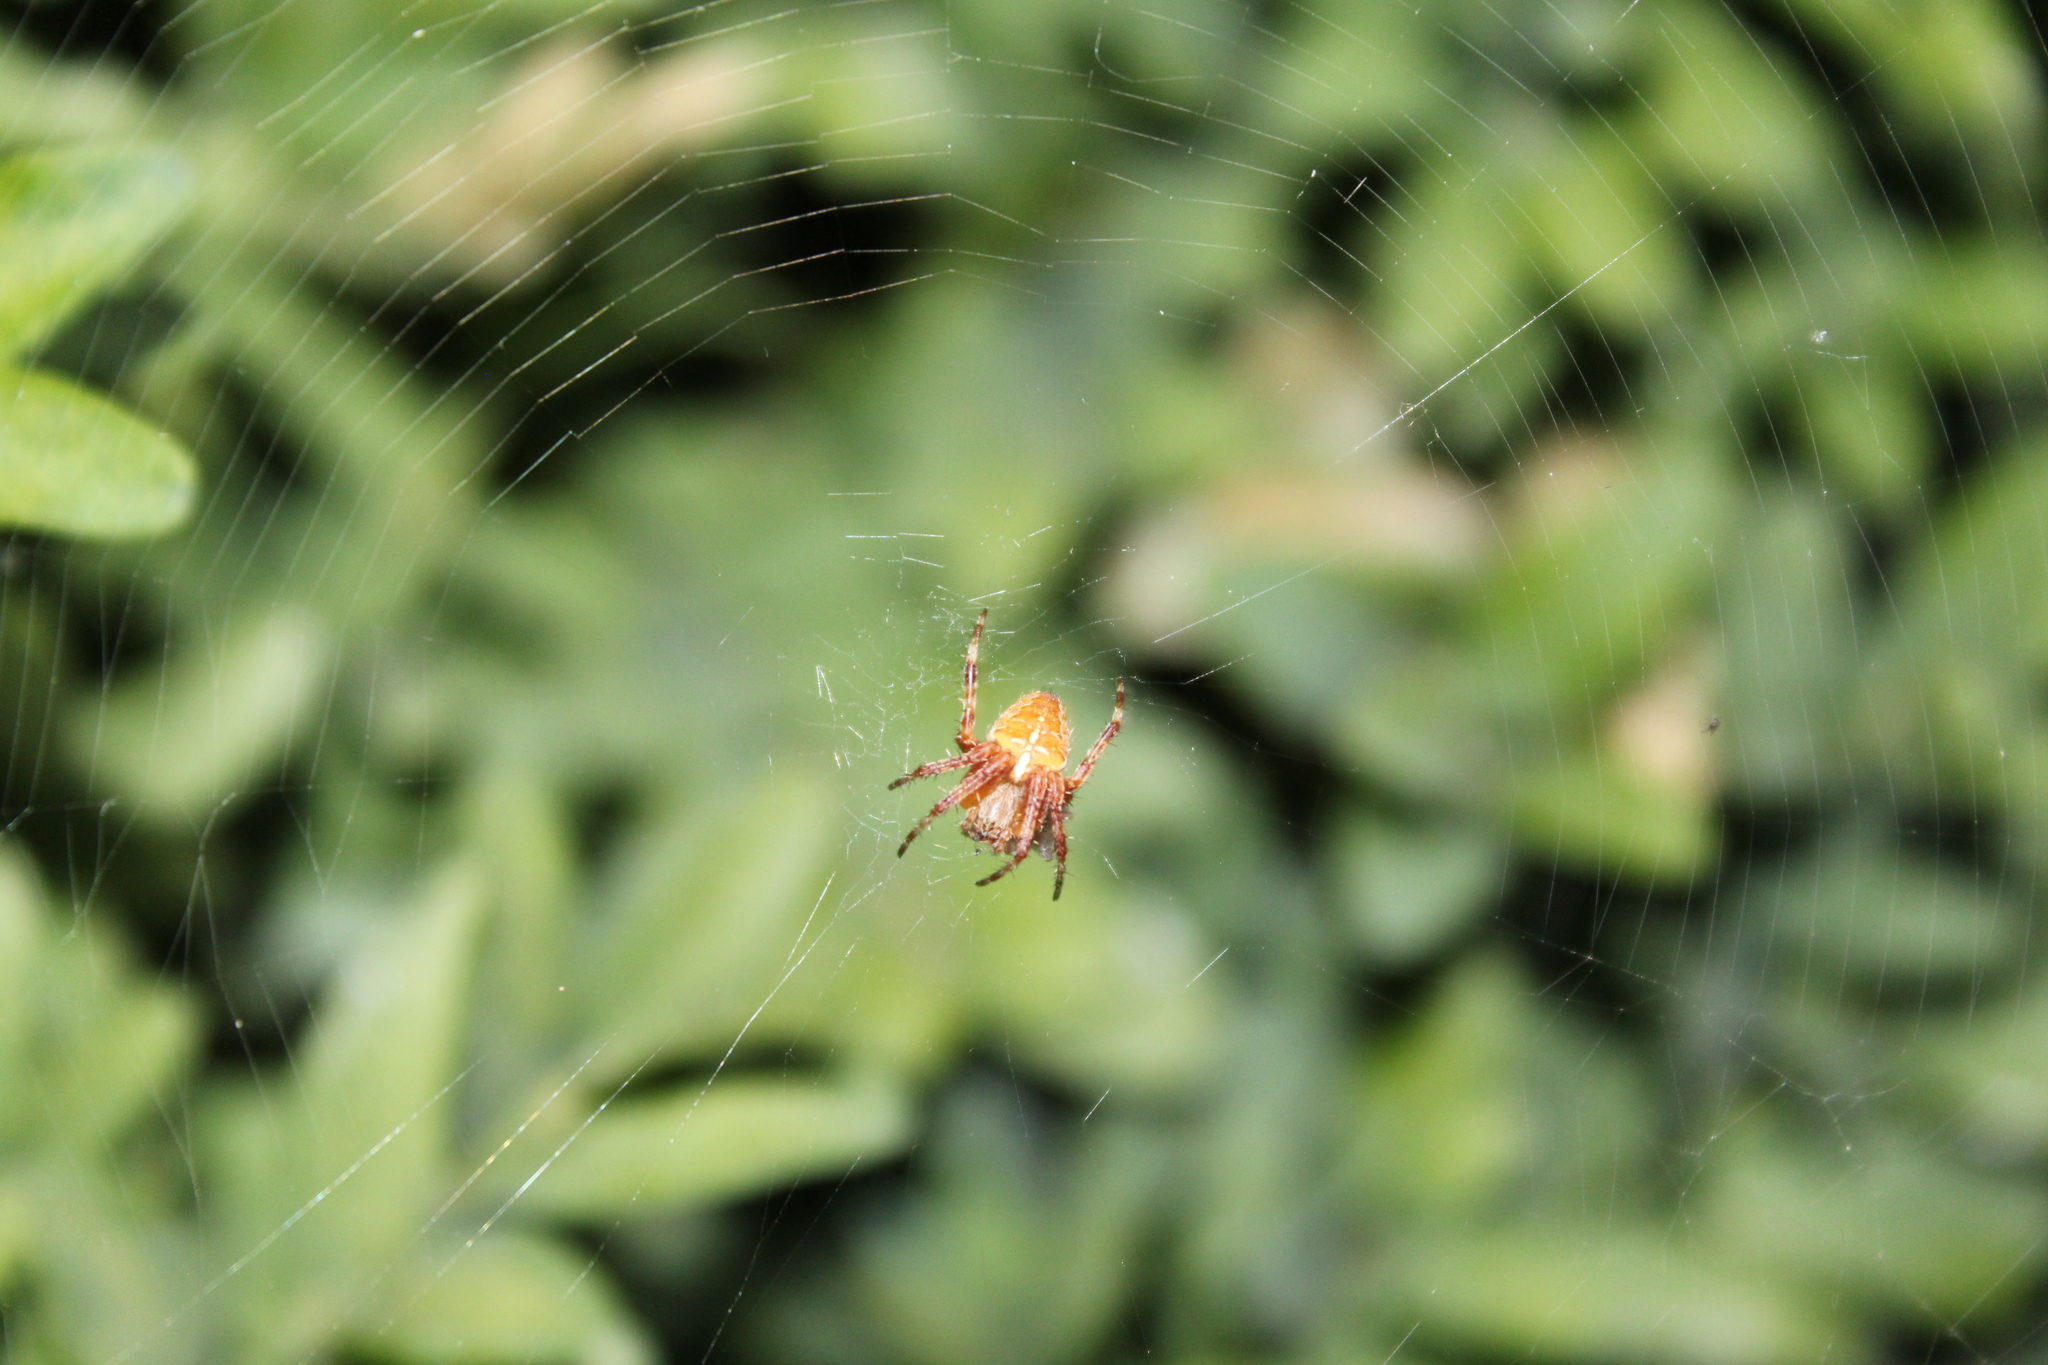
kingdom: Animalia
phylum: Arthropoda
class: Arachnida
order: Araneae
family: Araneidae
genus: Araneus
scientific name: Araneus diadematus
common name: Cross orbweaver
